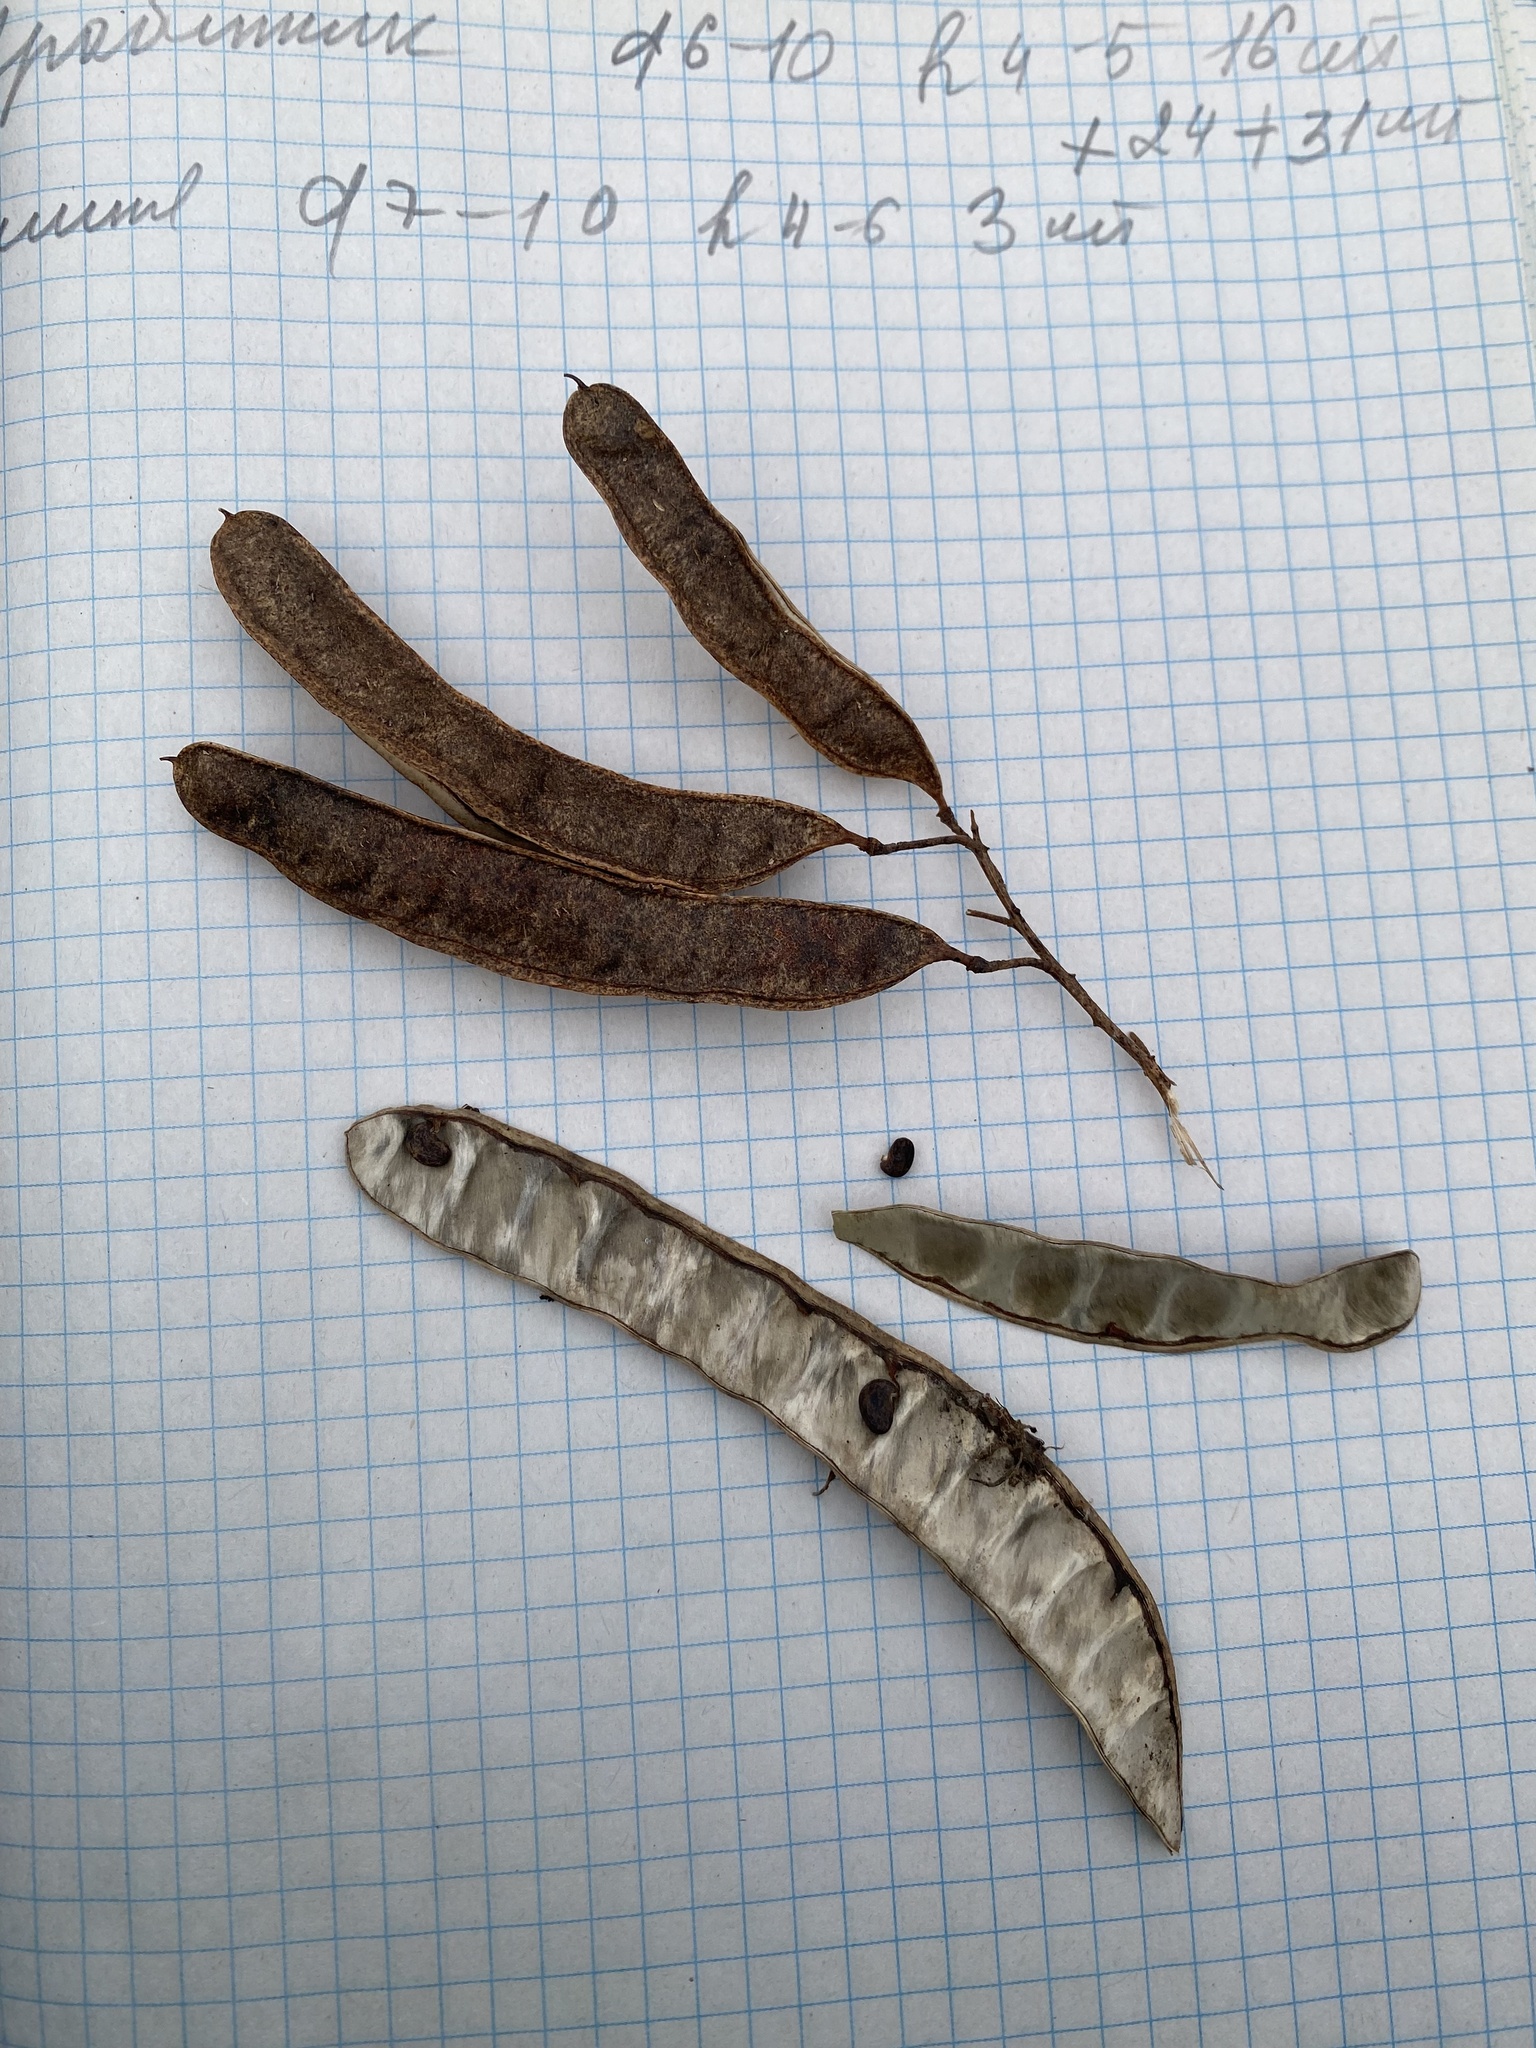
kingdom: Plantae
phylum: Tracheophyta
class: Magnoliopsida
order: Fabales
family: Fabaceae
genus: Robinia
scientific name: Robinia pseudoacacia
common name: Black locust
